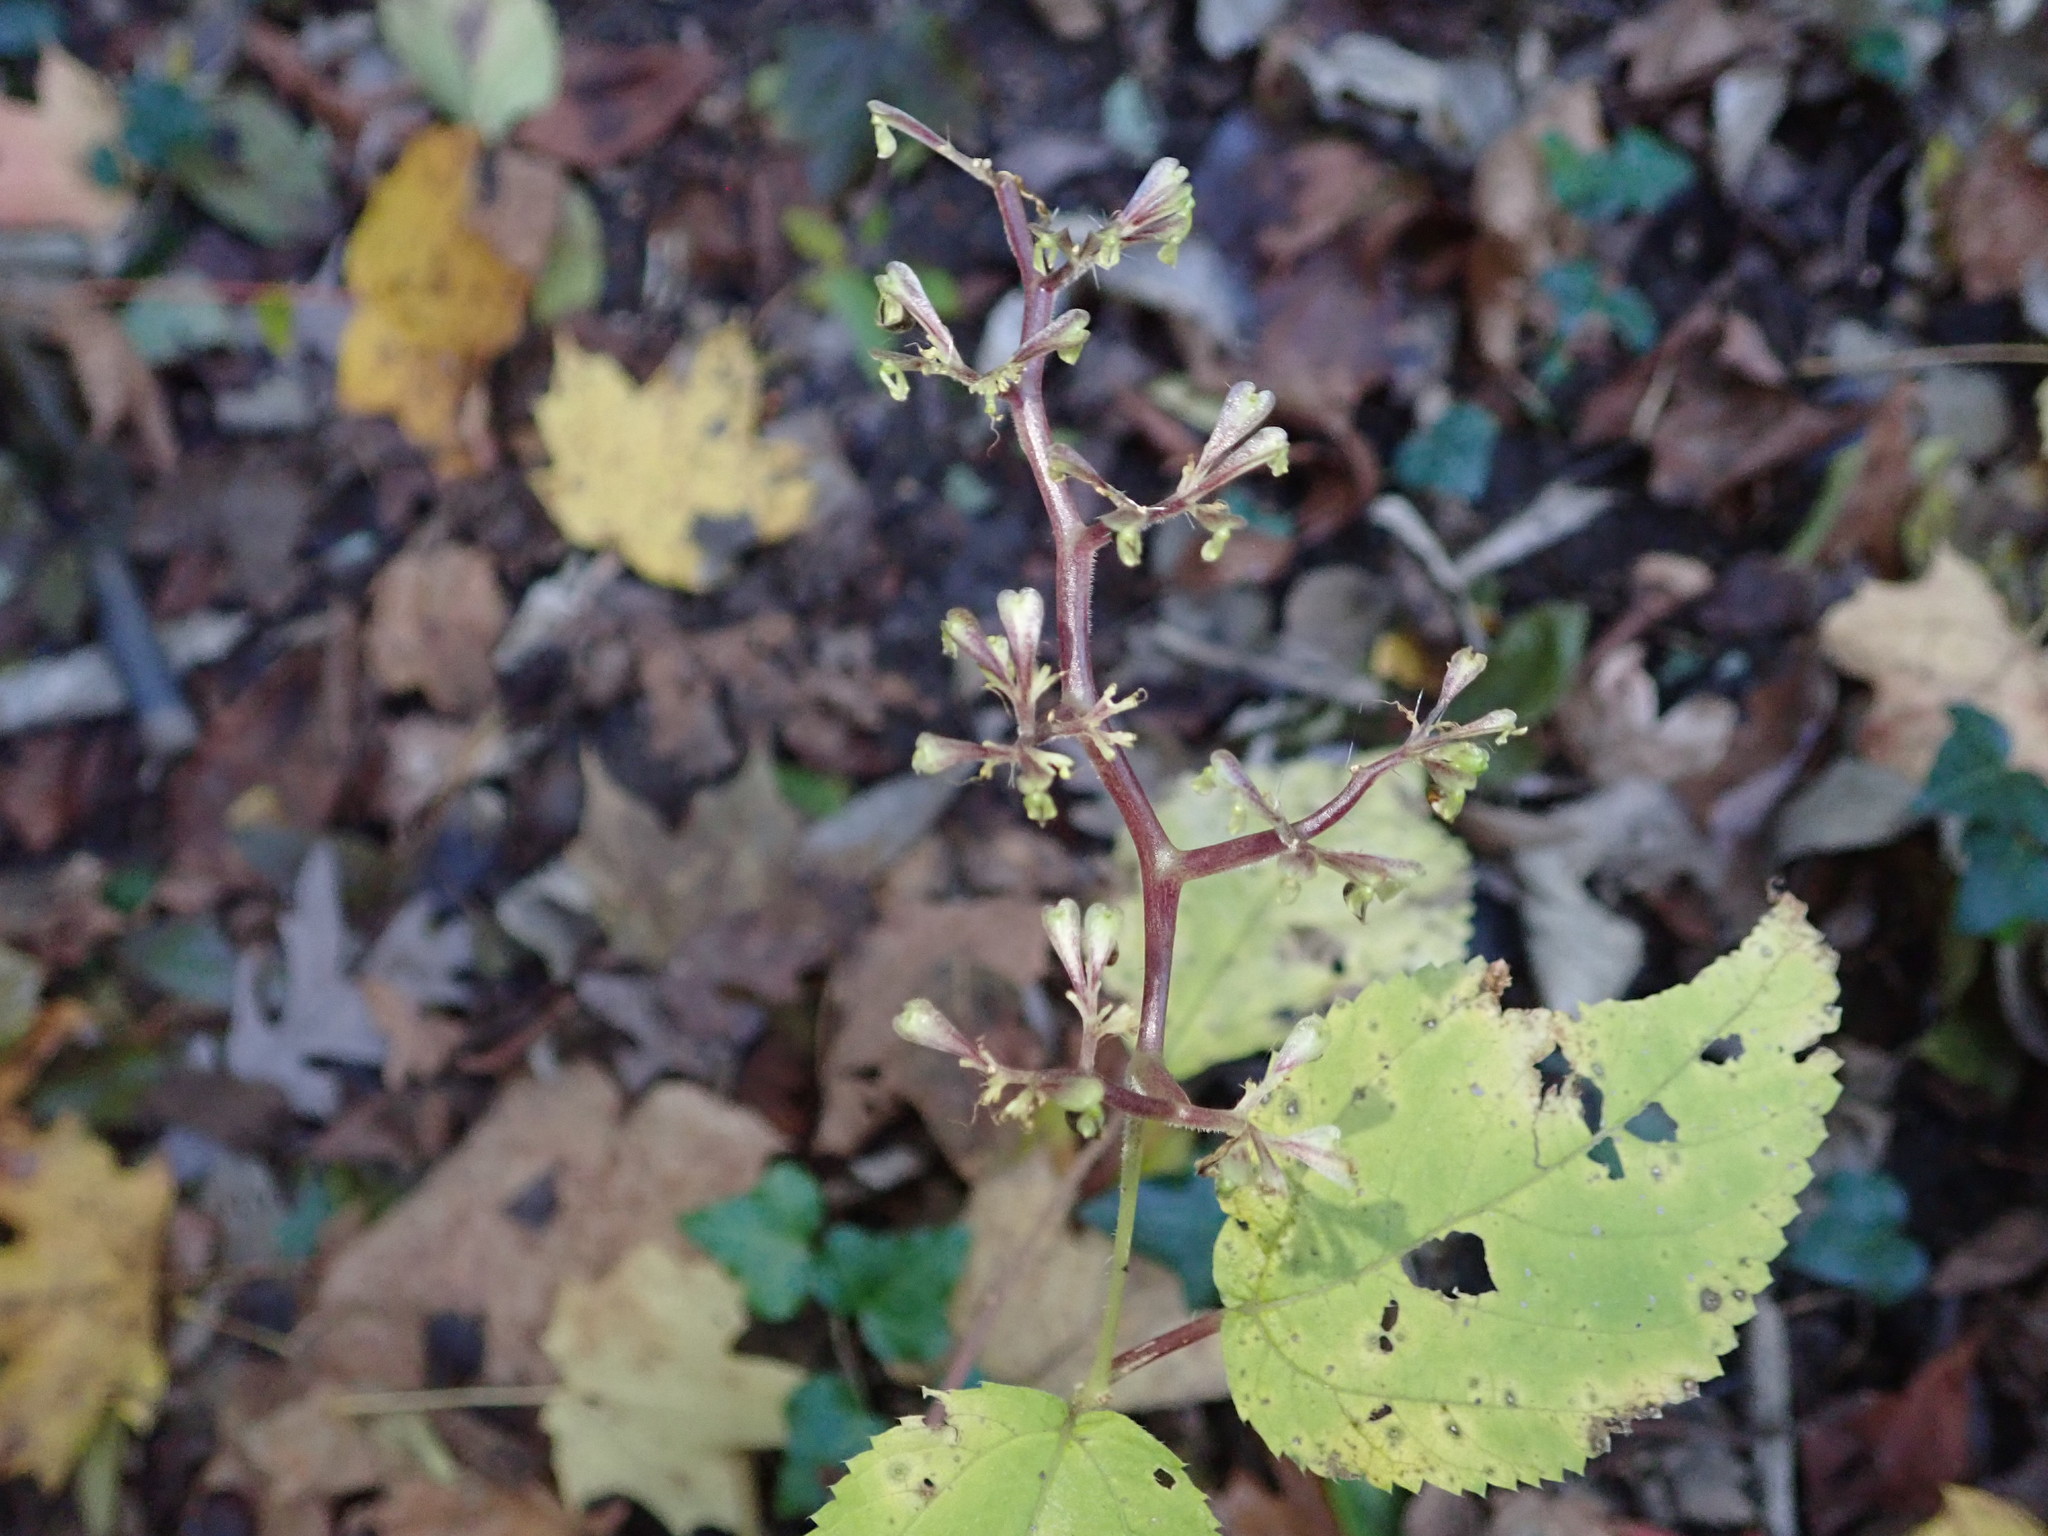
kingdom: Plantae
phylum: Tracheophyta
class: Magnoliopsida
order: Rosales
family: Urticaceae
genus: Laportea
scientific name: Laportea canadensis
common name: Canada nettle
